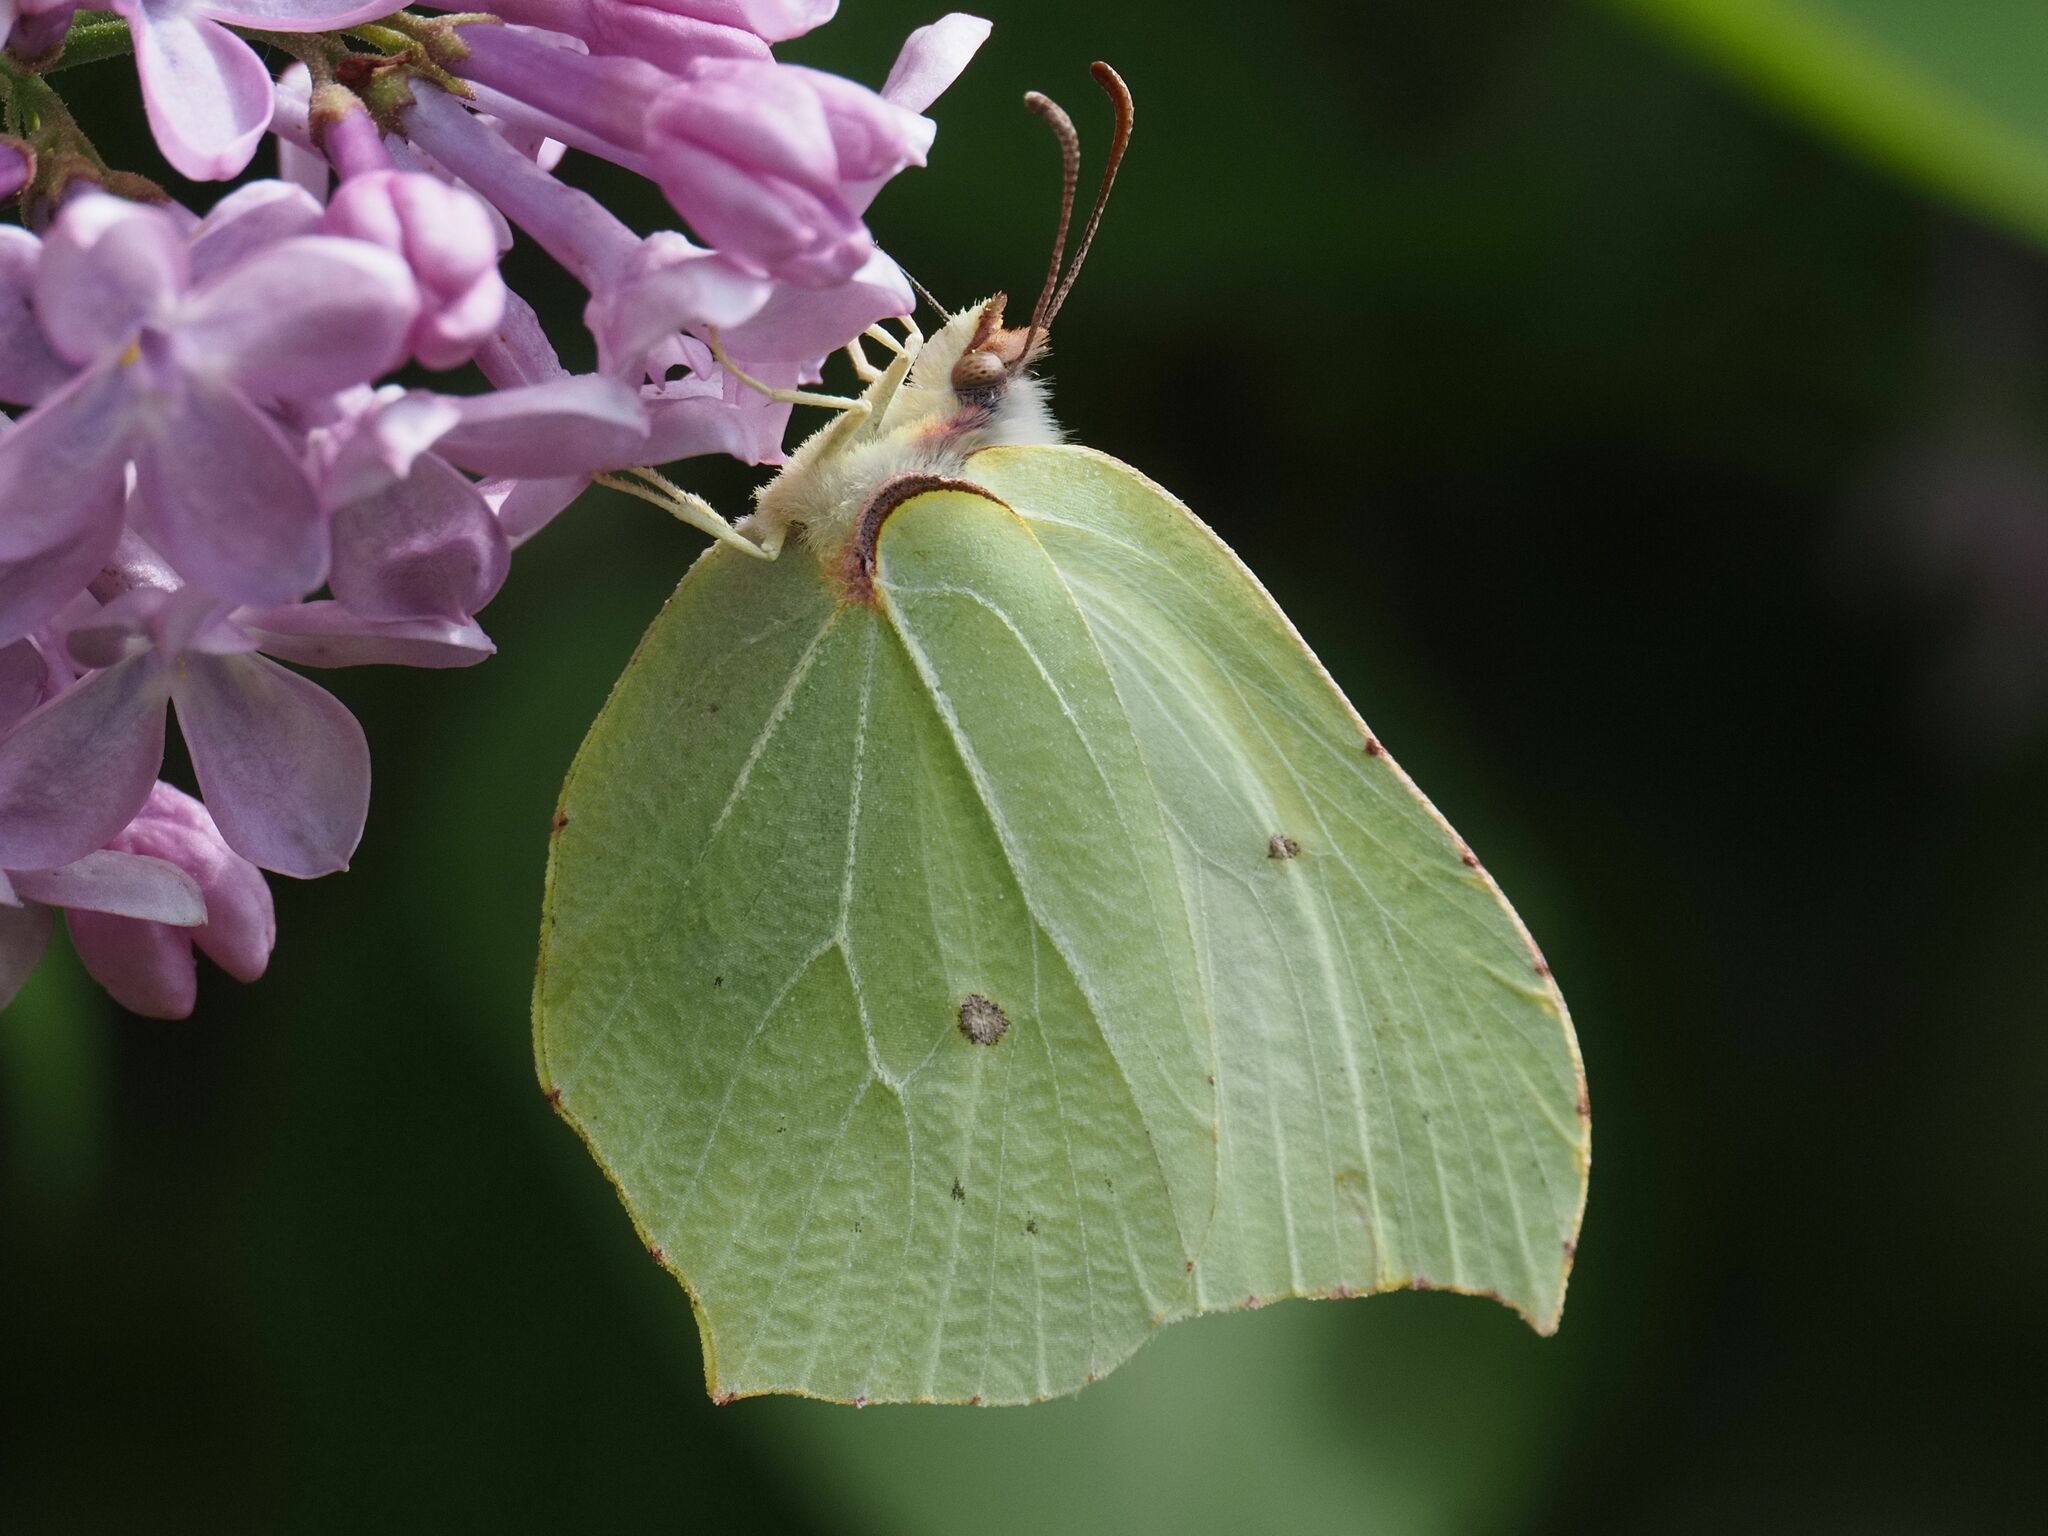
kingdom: Animalia
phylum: Arthropoda
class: Insecta
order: Lepidoptera
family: Pieridae
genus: Gonepteryx
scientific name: Gonepteryx rhamni
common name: Brimstone
